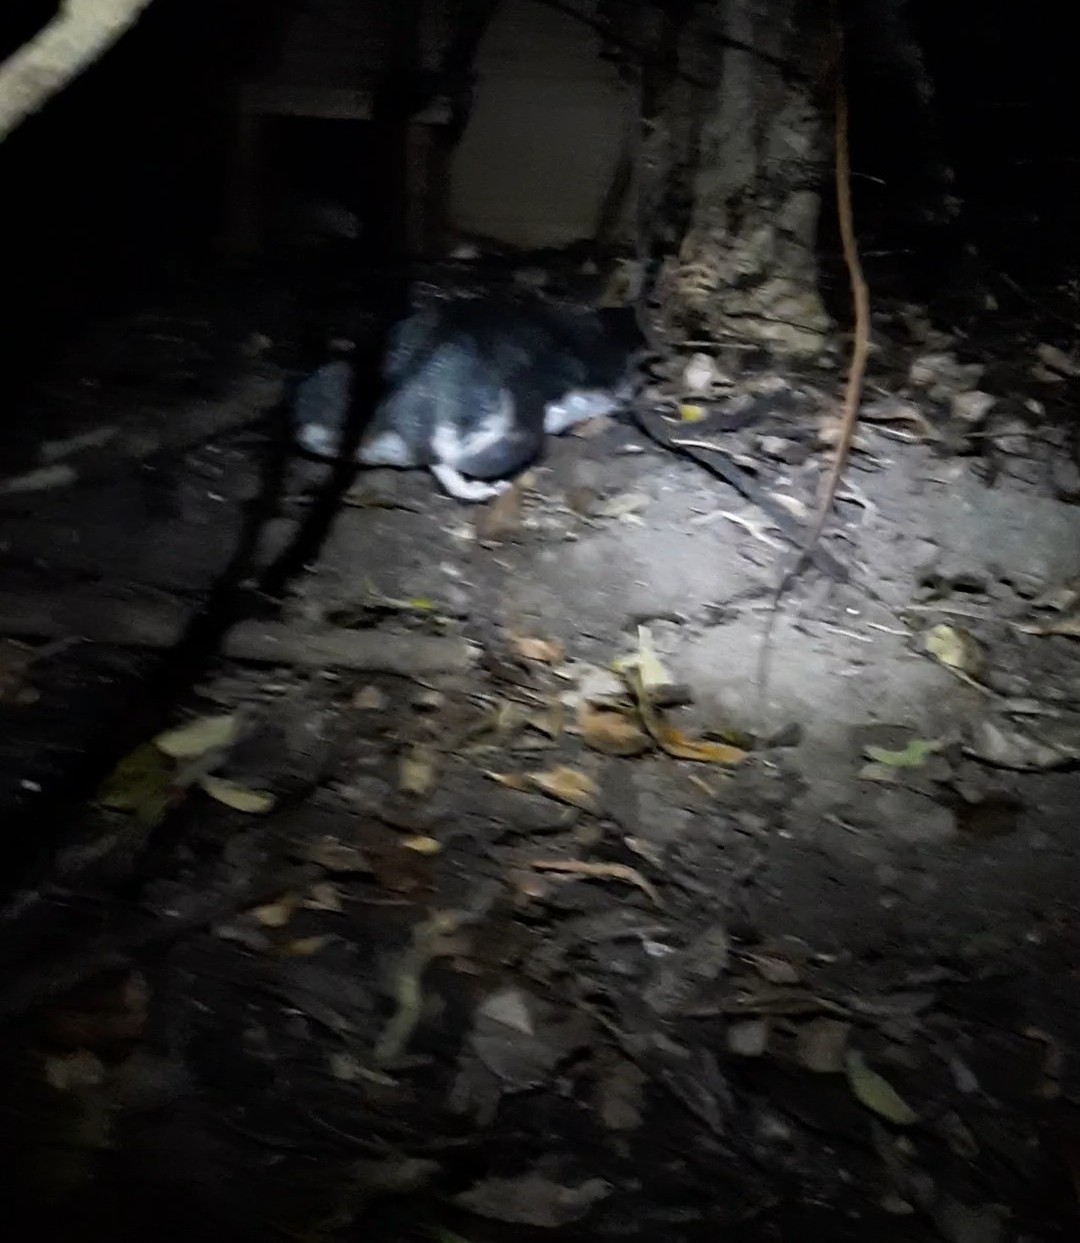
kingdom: Animalia
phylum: Chordata
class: Aves
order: Sphenisciformes
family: Spheniscidae
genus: Eudyptula
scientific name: Eudyptula minor
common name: Little penguin
